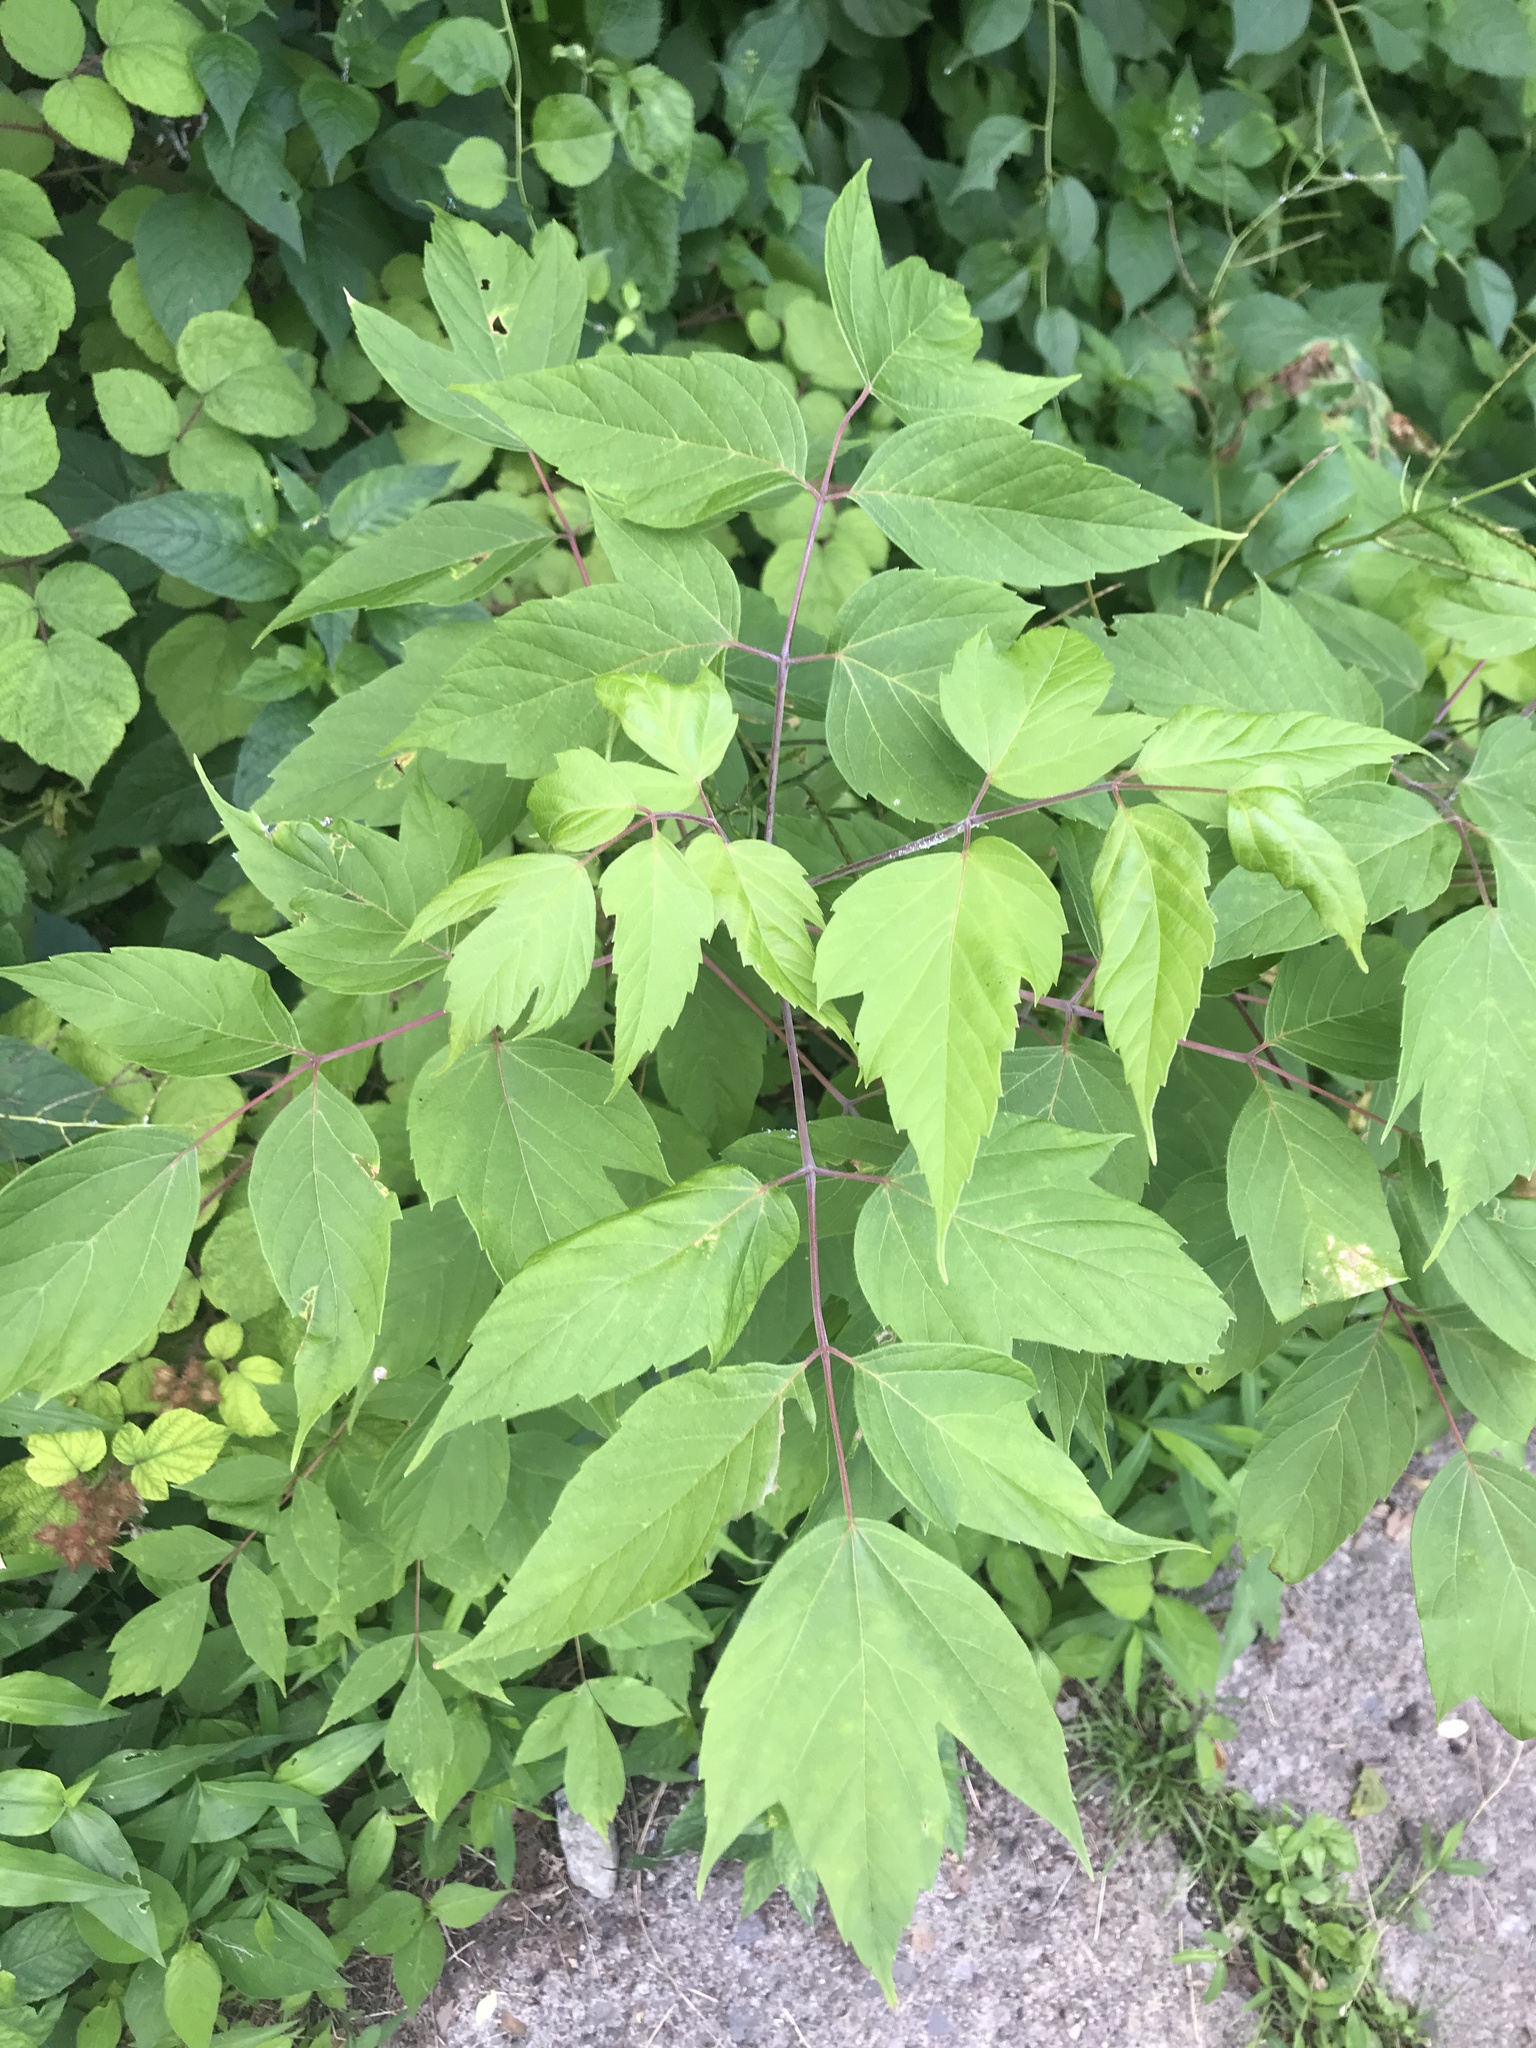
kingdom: Plantae
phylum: Tracheophyta
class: Magnoliopsida
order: Sapindales
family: Sapindaceae
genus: Acer
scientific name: Acer negundo
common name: Ashleaf maple
